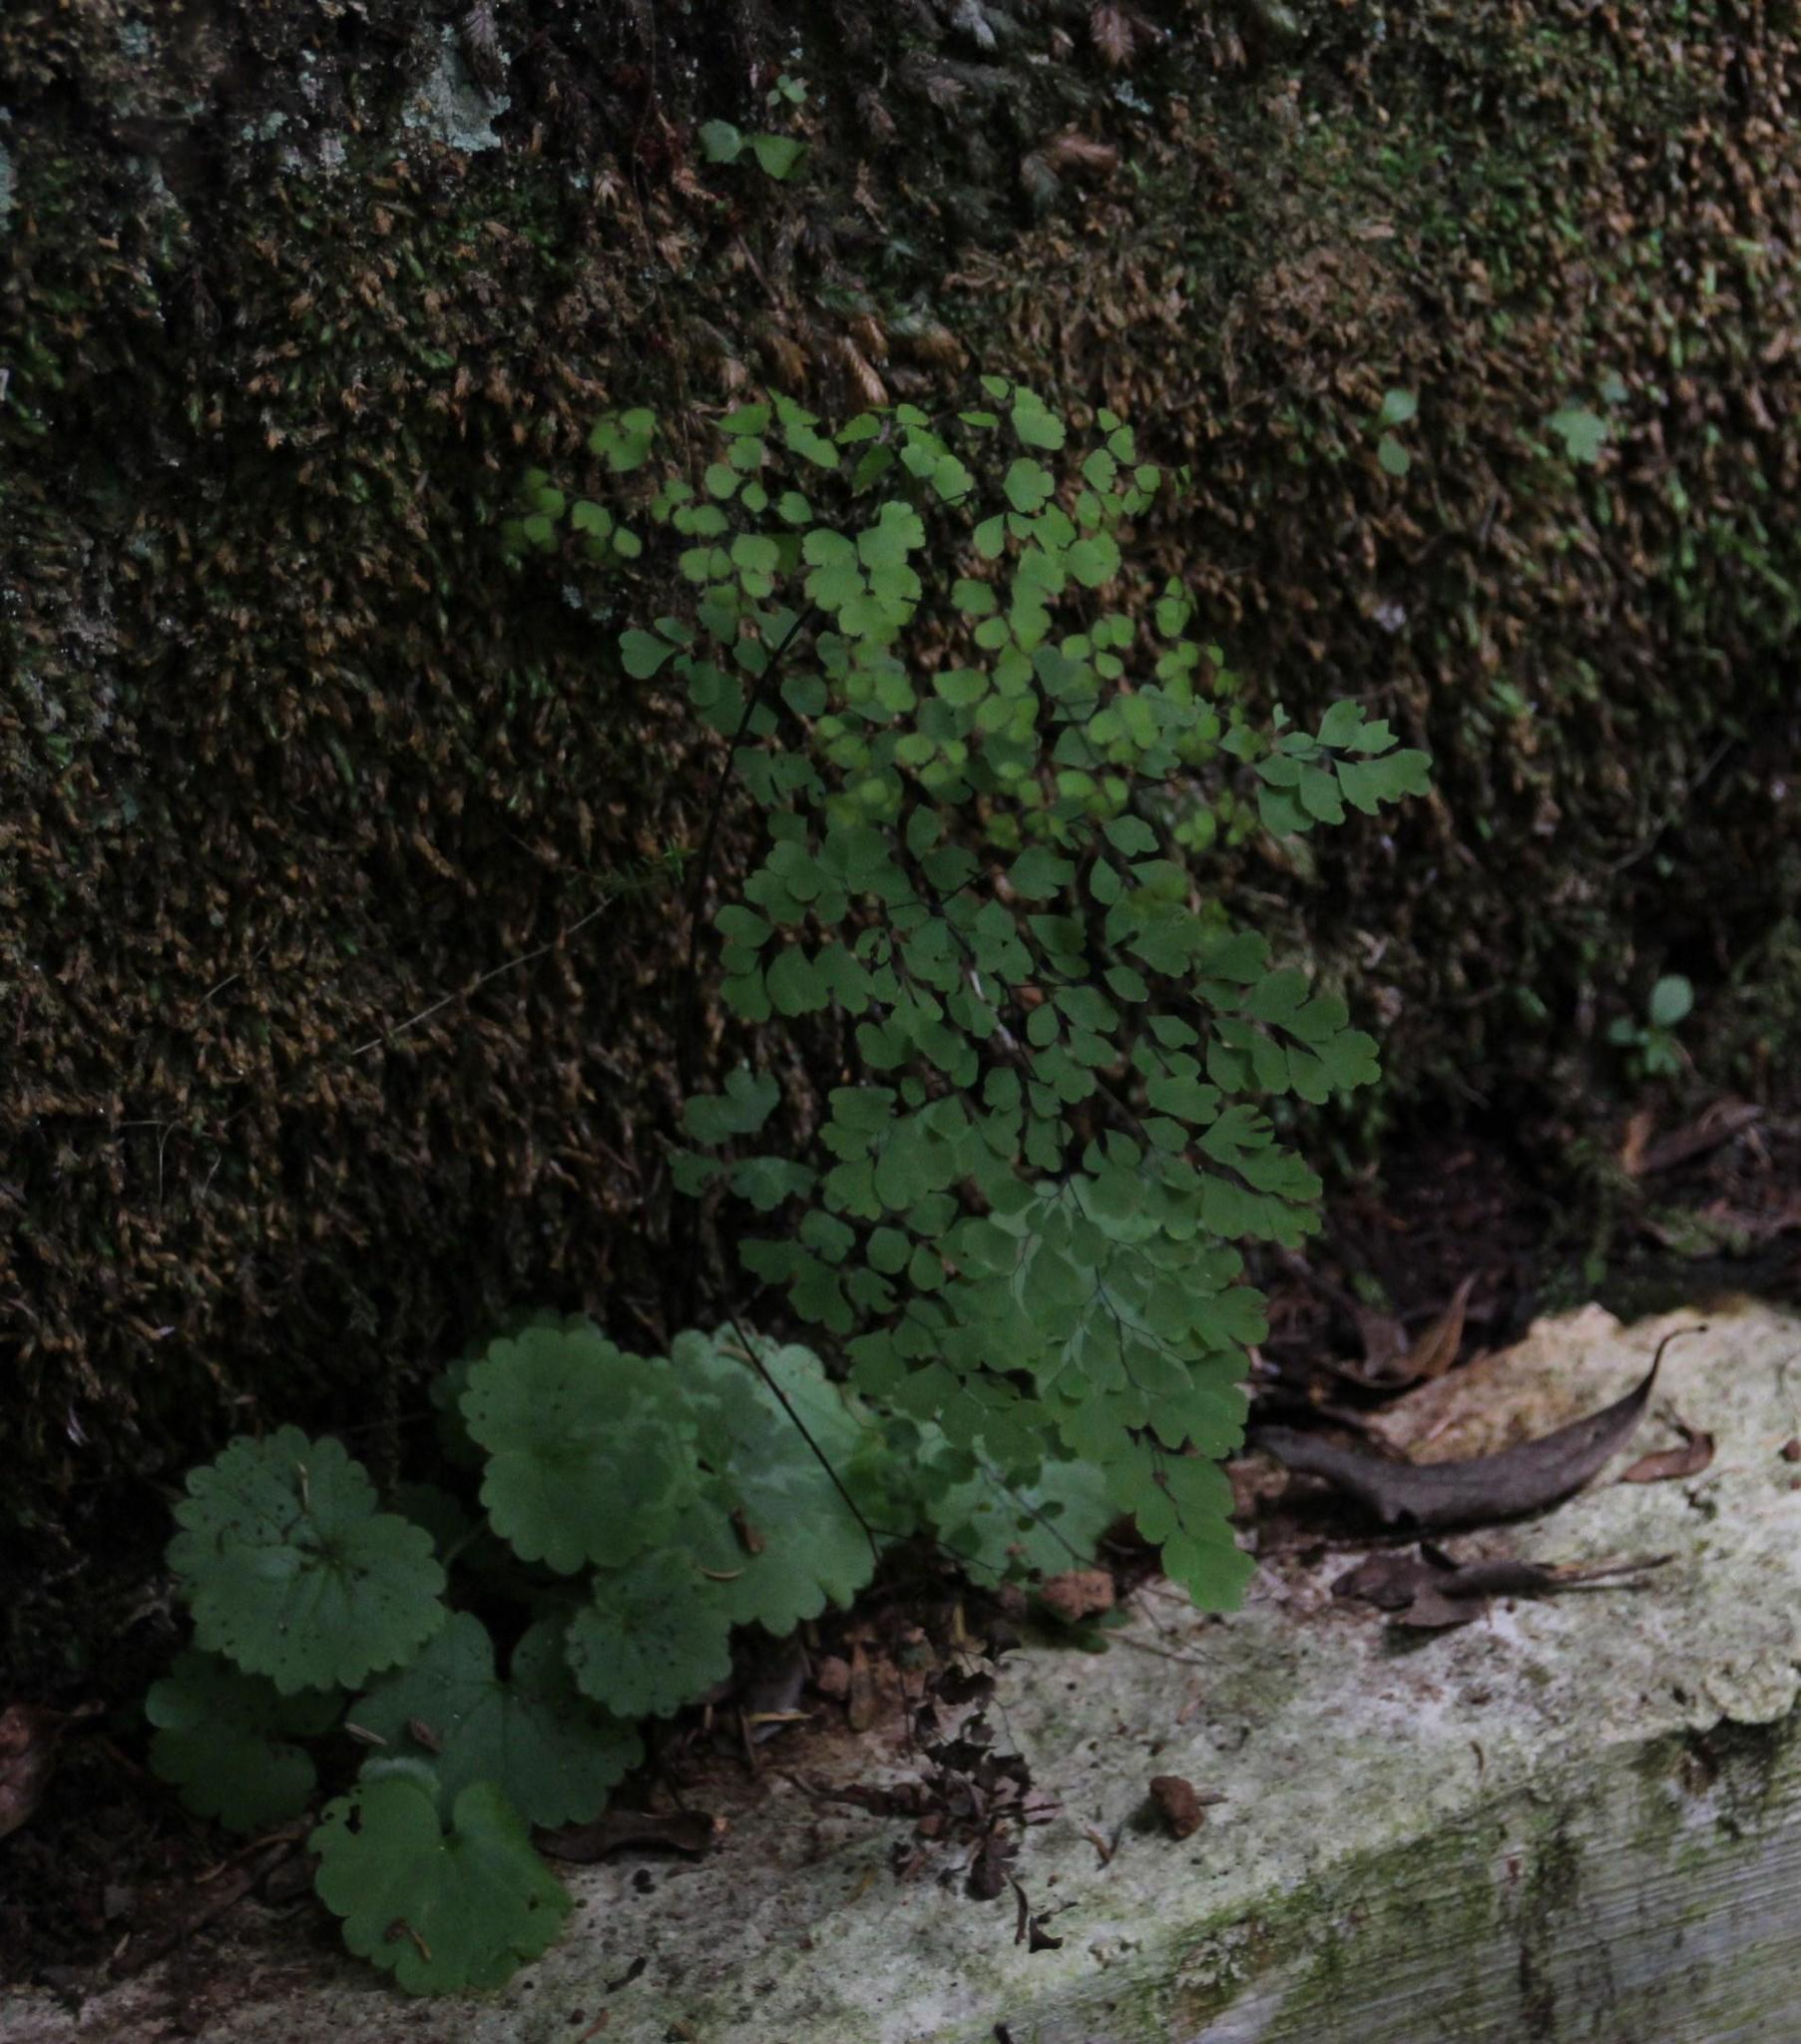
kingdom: Plantae
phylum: Tracheophyta
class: Polypodiopsida
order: Polypodiales
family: Pteridaceae
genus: Adiantum
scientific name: Adiantum capillus-veneris
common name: Maidenhair fern
